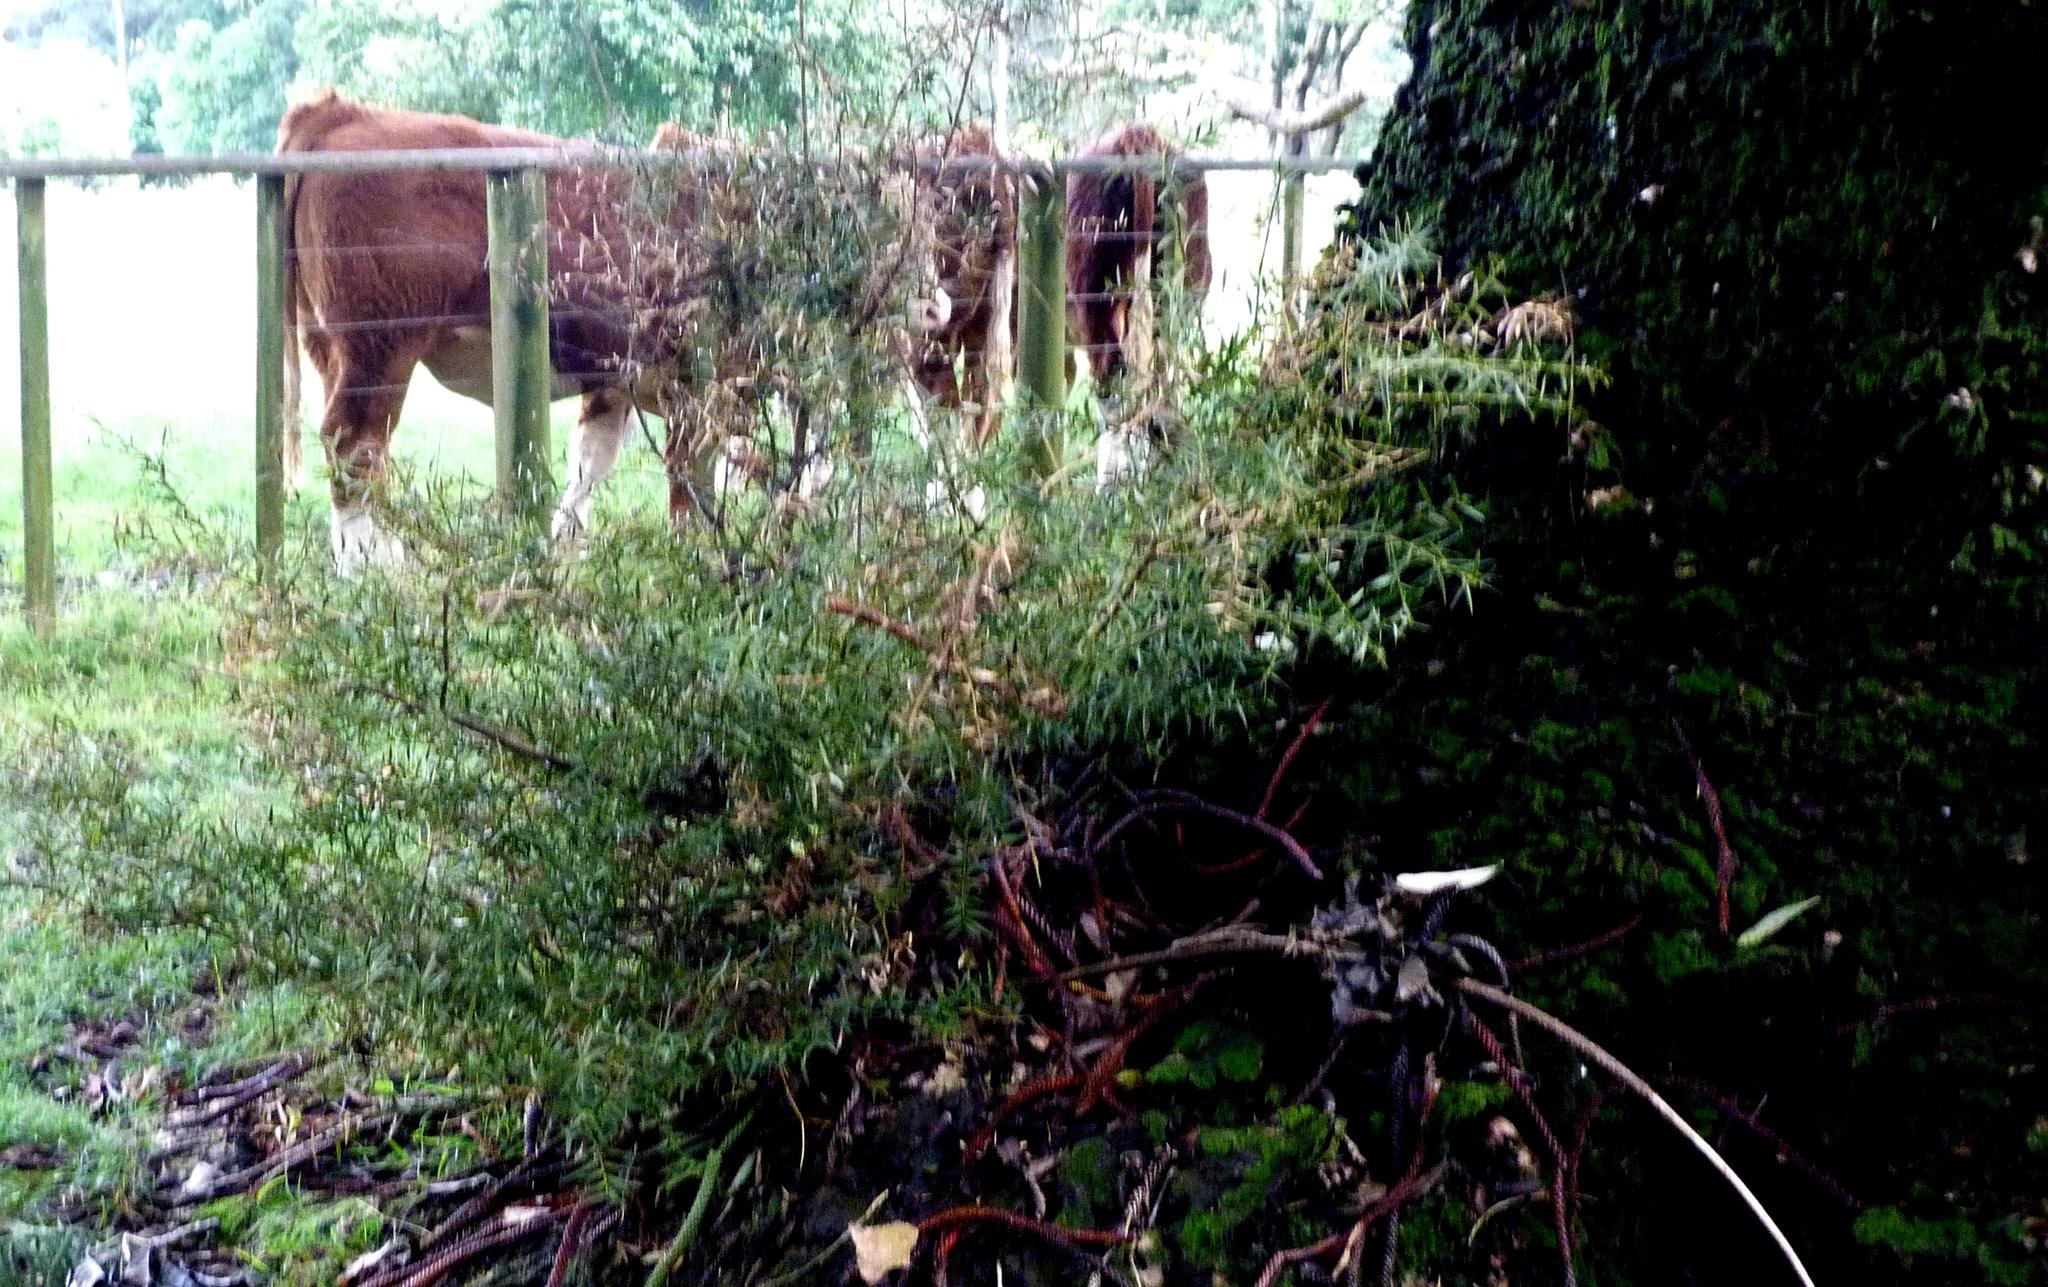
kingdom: Plantae
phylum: Tracheophyta
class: Pinopsida
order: Pinales
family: Podocarpaceae
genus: Podocarpus
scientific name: Podocarpus totara
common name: Totara
